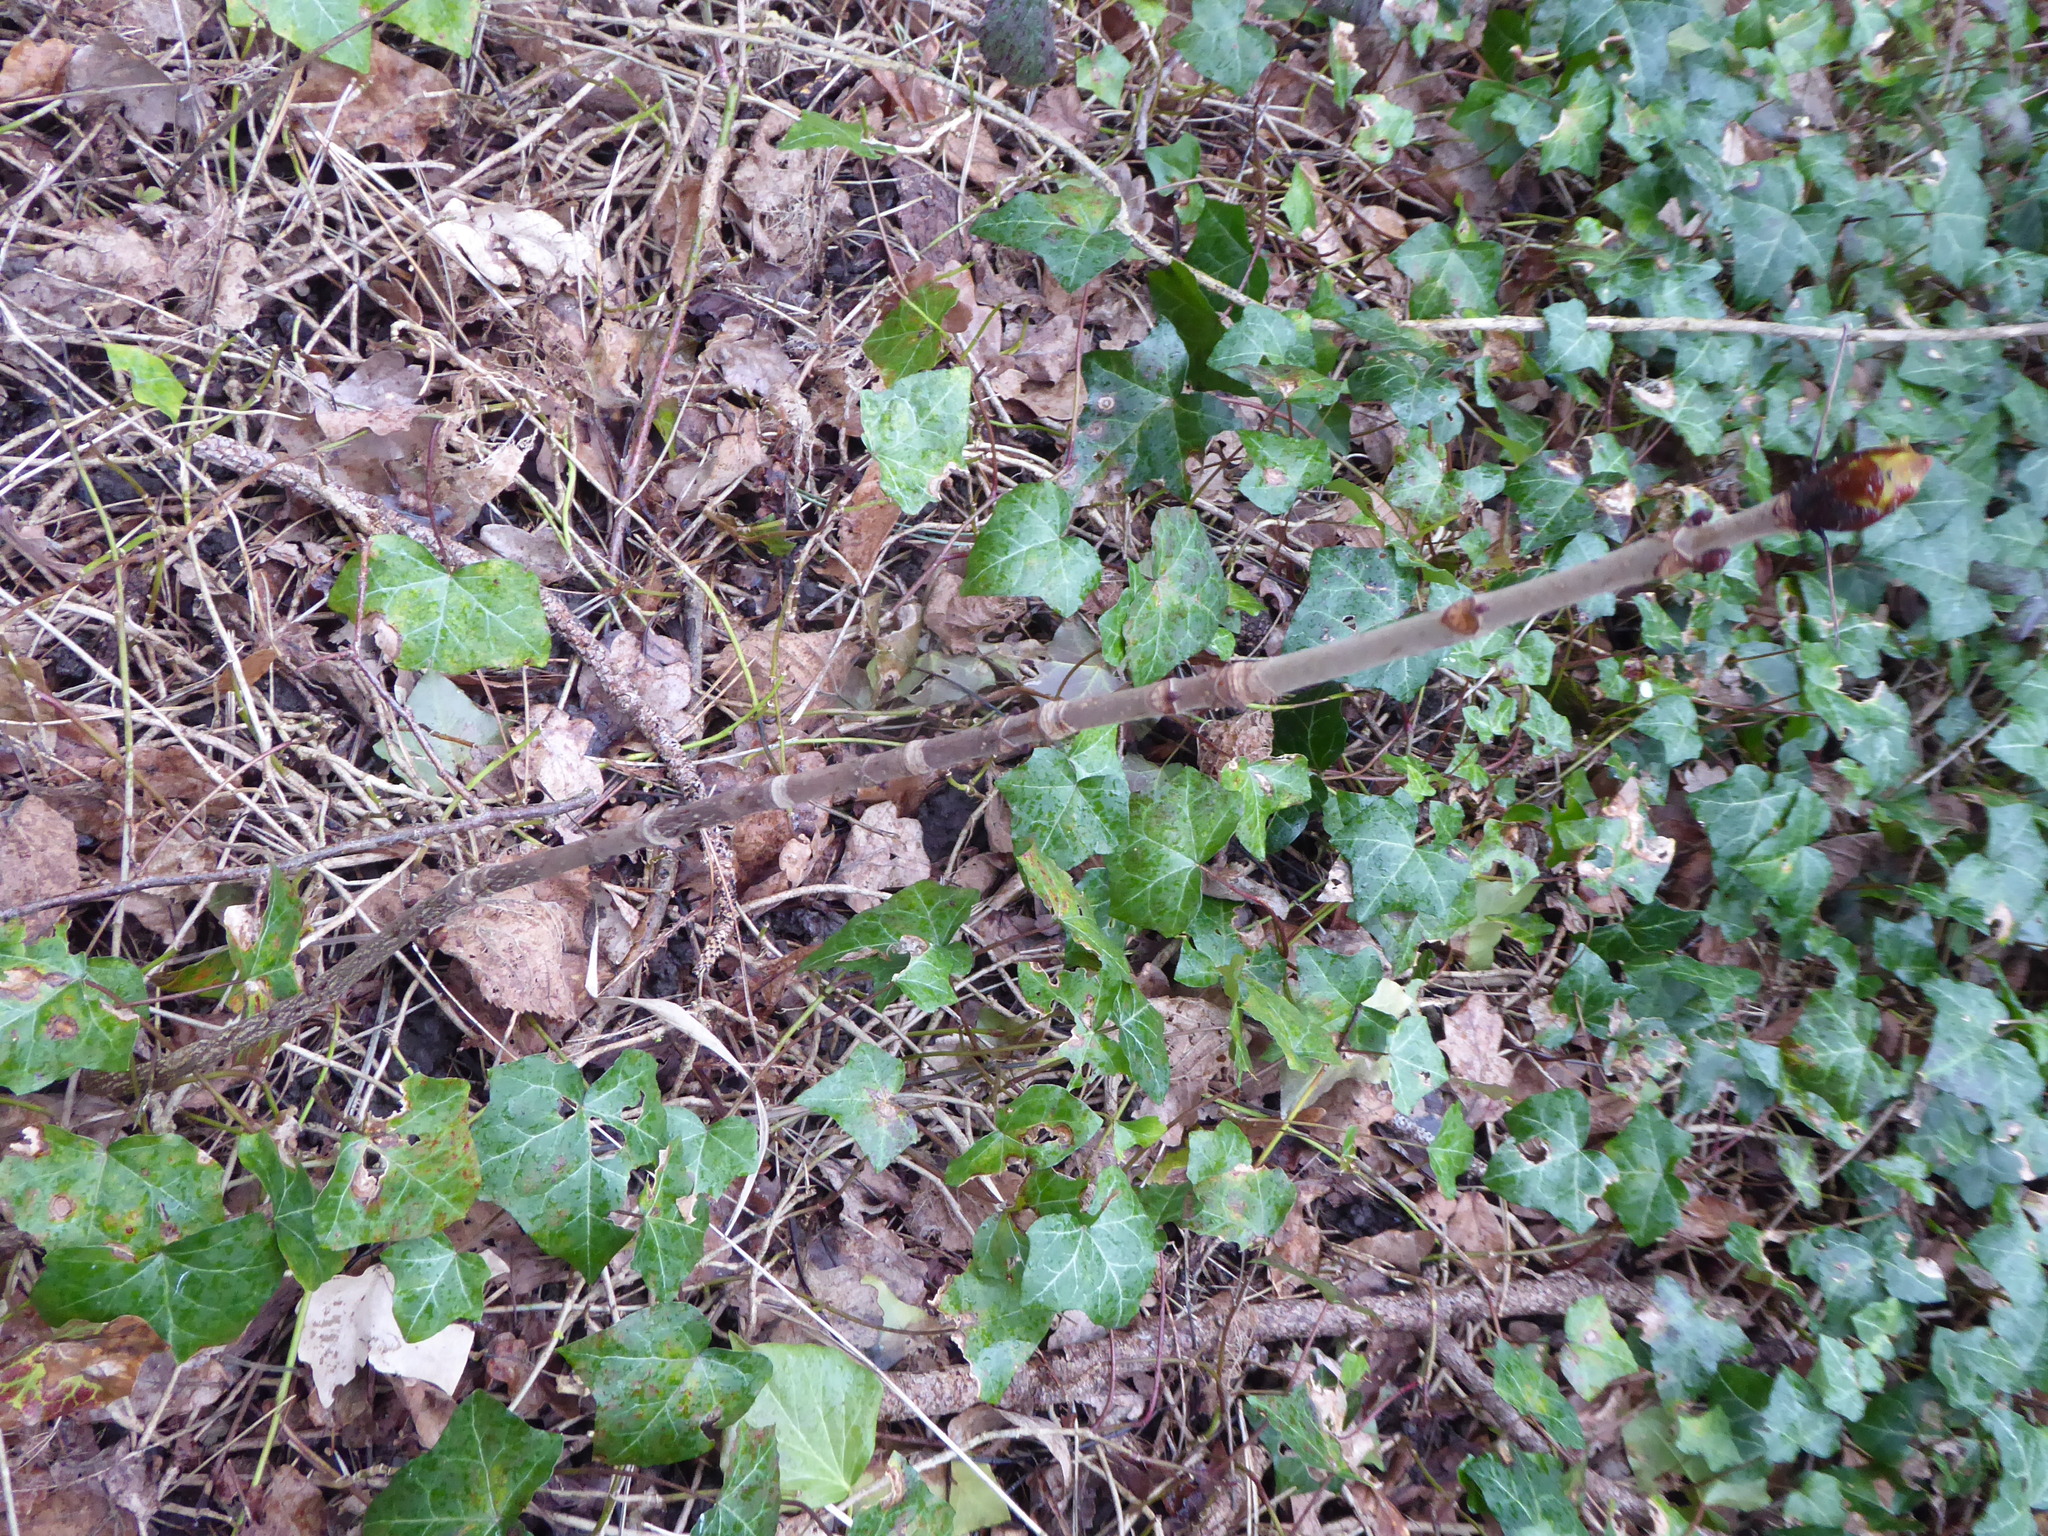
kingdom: Plantae
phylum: Tracheophyta
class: Magnoliopsida
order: Sapindales
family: Sapindaceae
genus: Aesculus
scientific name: Aesculus hippocastanum
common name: Horse-chestnut
